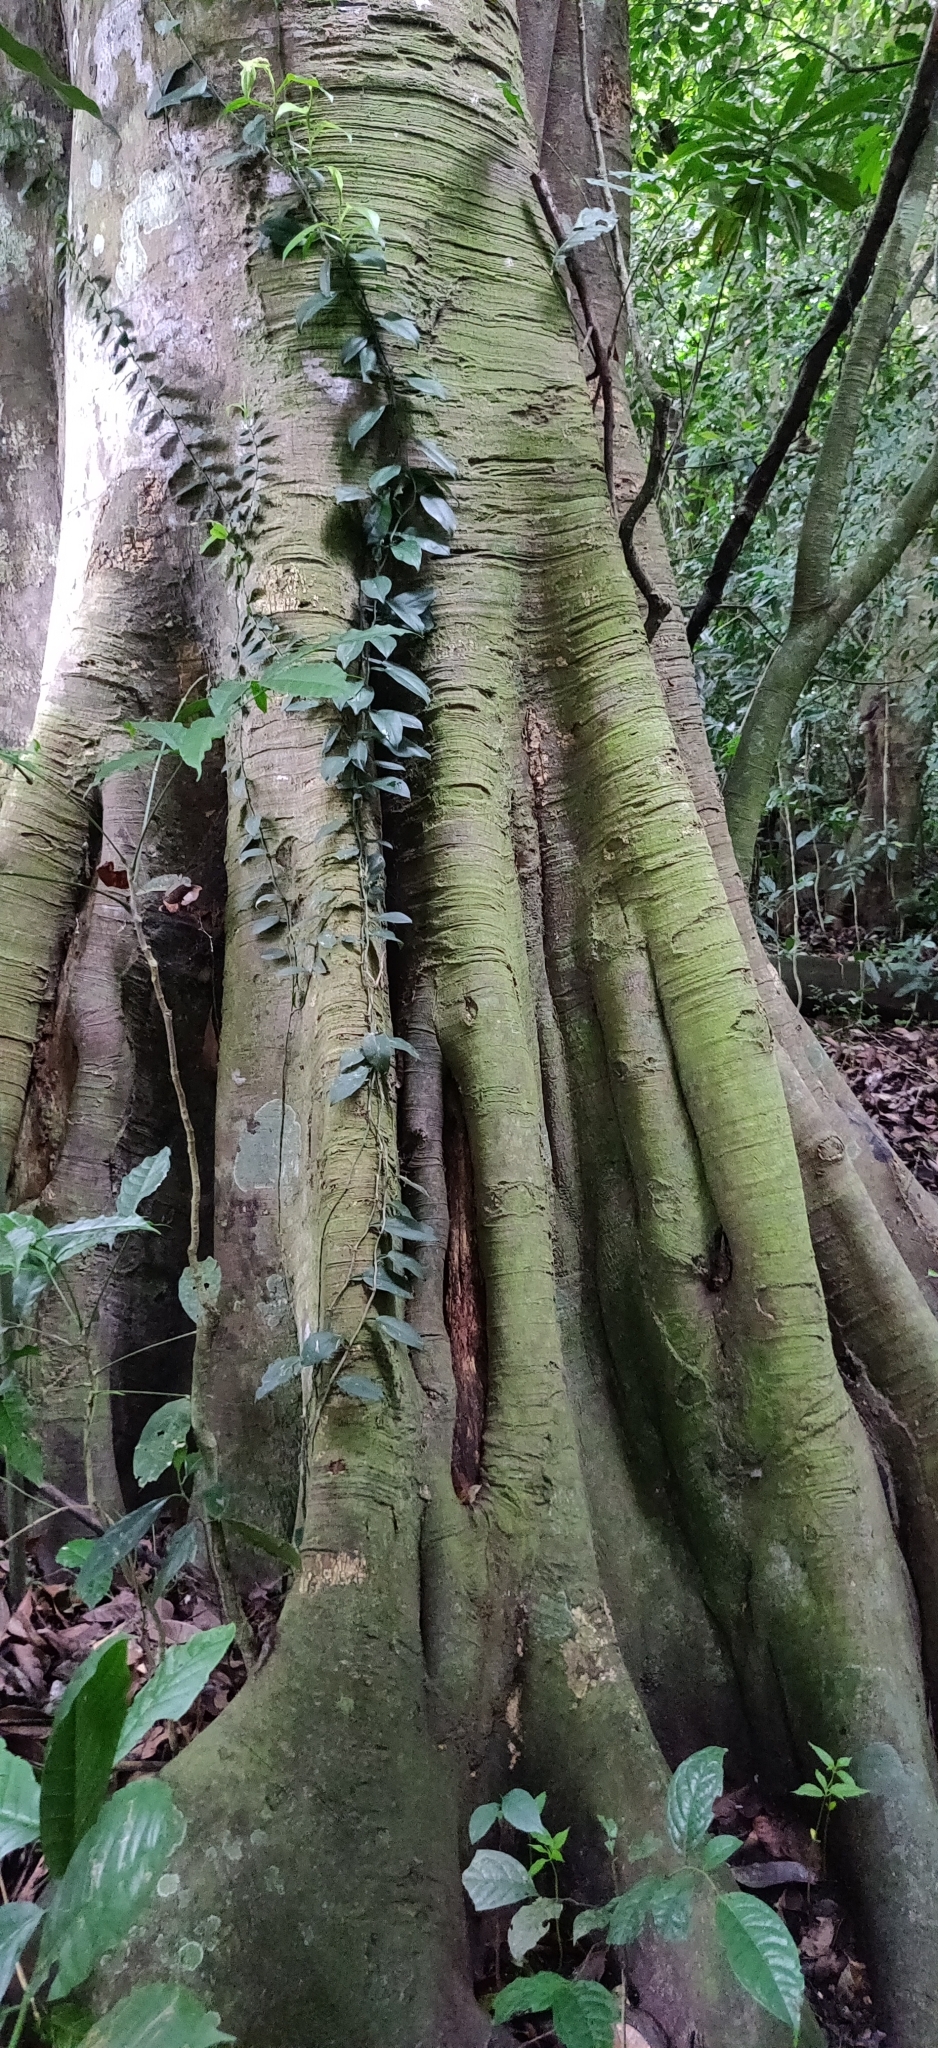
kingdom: Plantae
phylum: Tracheophyta
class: Magnoliopsida
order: Rosales
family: Moraceae
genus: Artocarpus
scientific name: Artocarpus gomezianus
